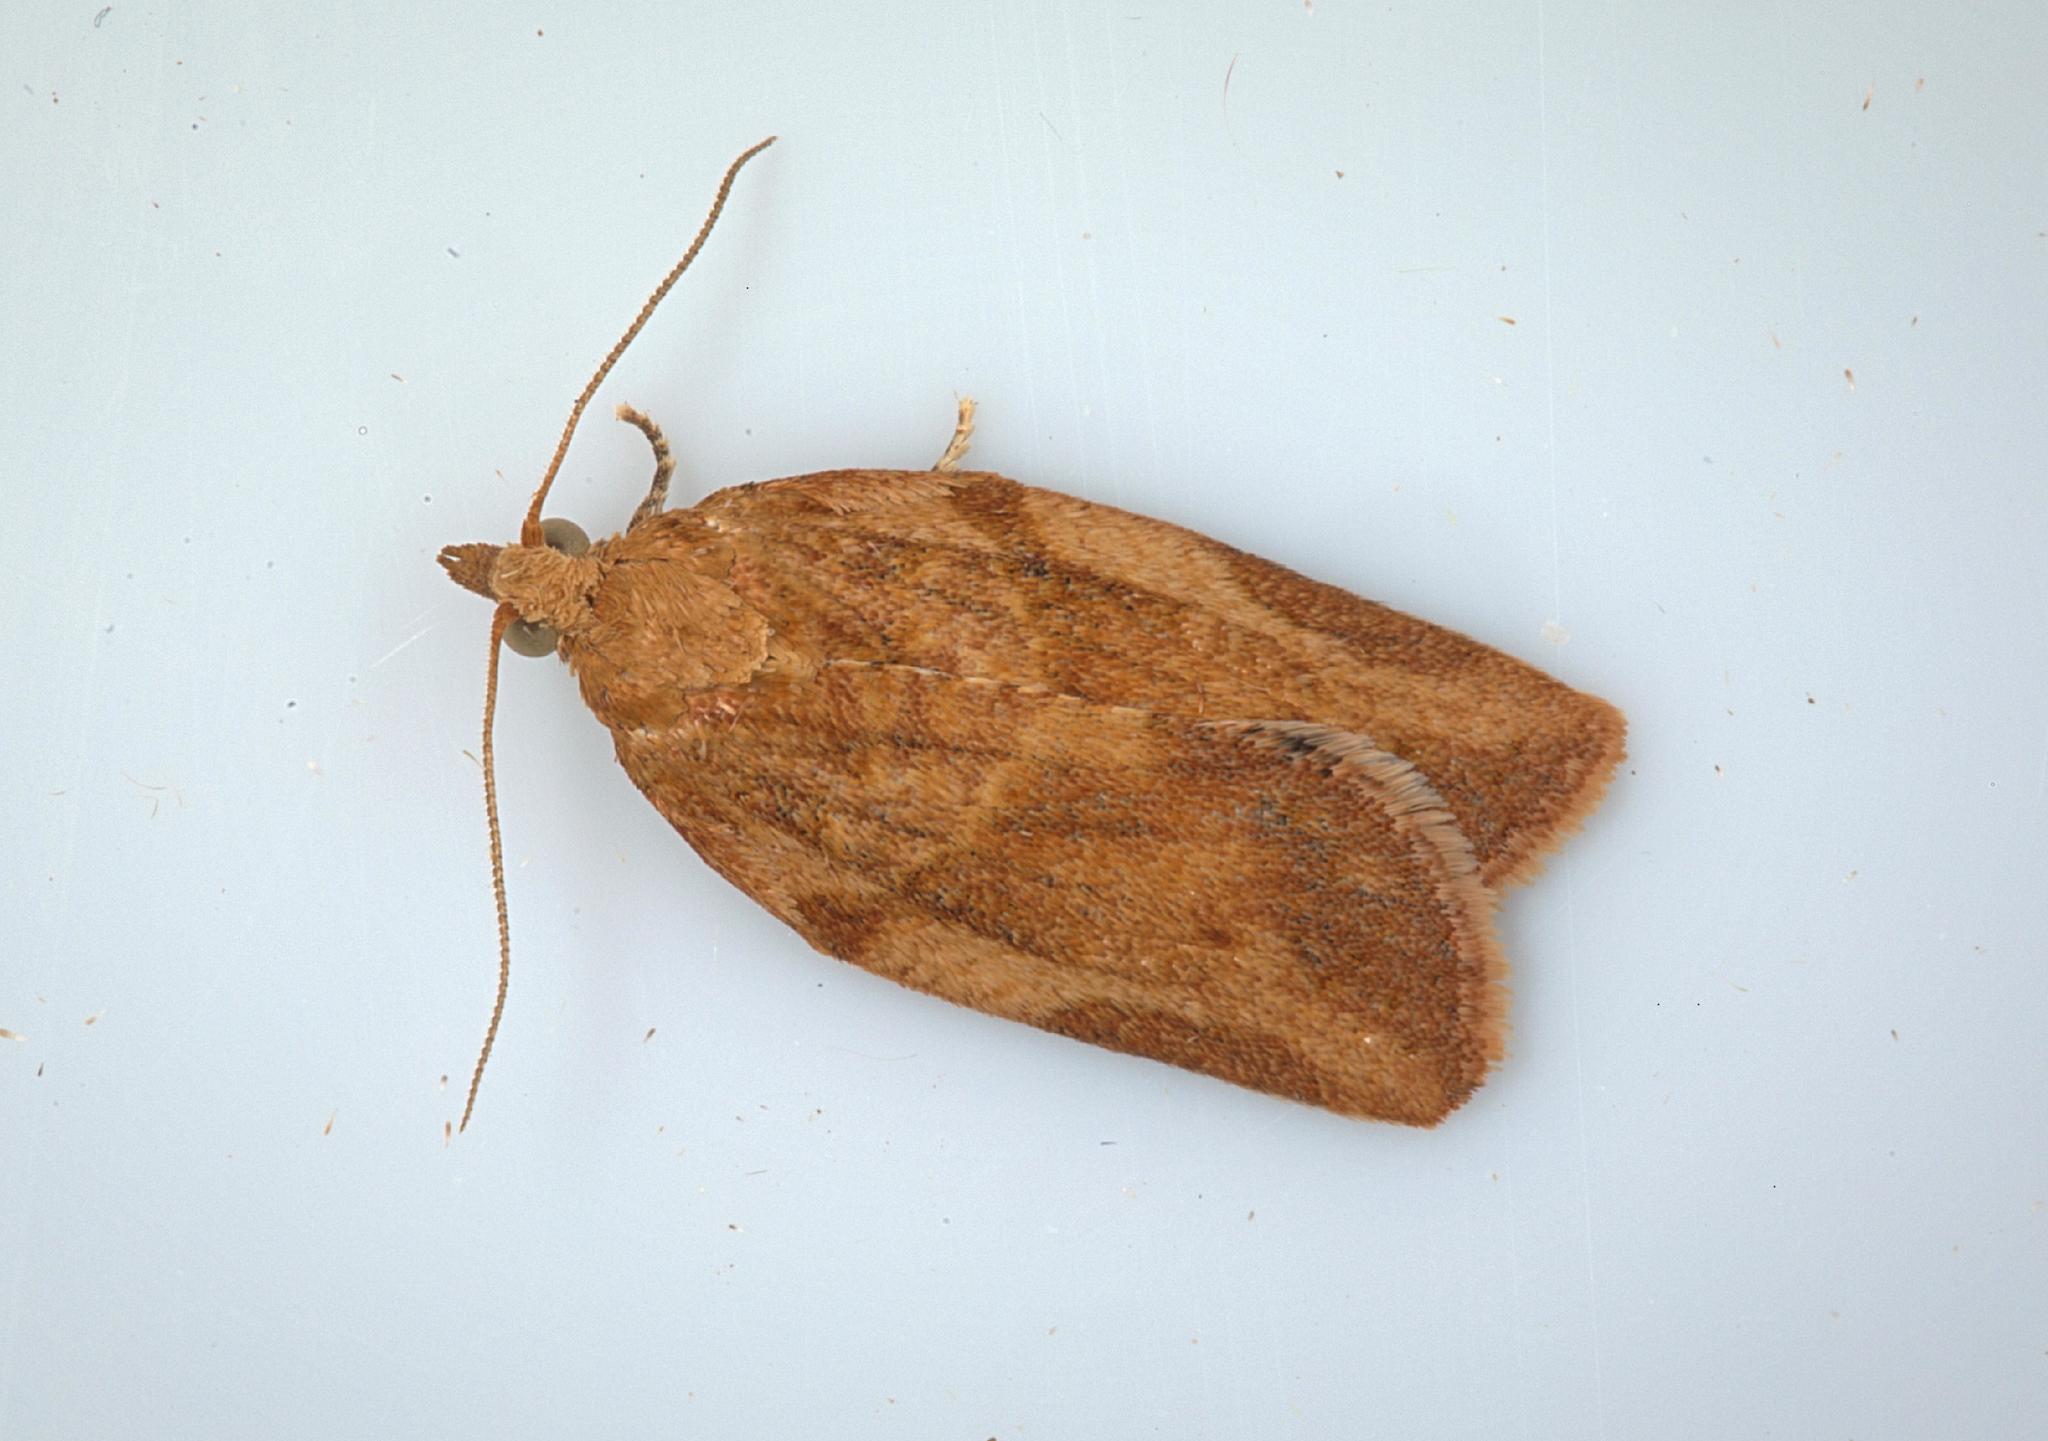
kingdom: Animalia
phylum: Arthropoda
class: Insecta
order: Lepidoptera
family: Tortricidae
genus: Epiphyas
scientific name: Epiphyas postvittana
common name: Light brown apple moth
